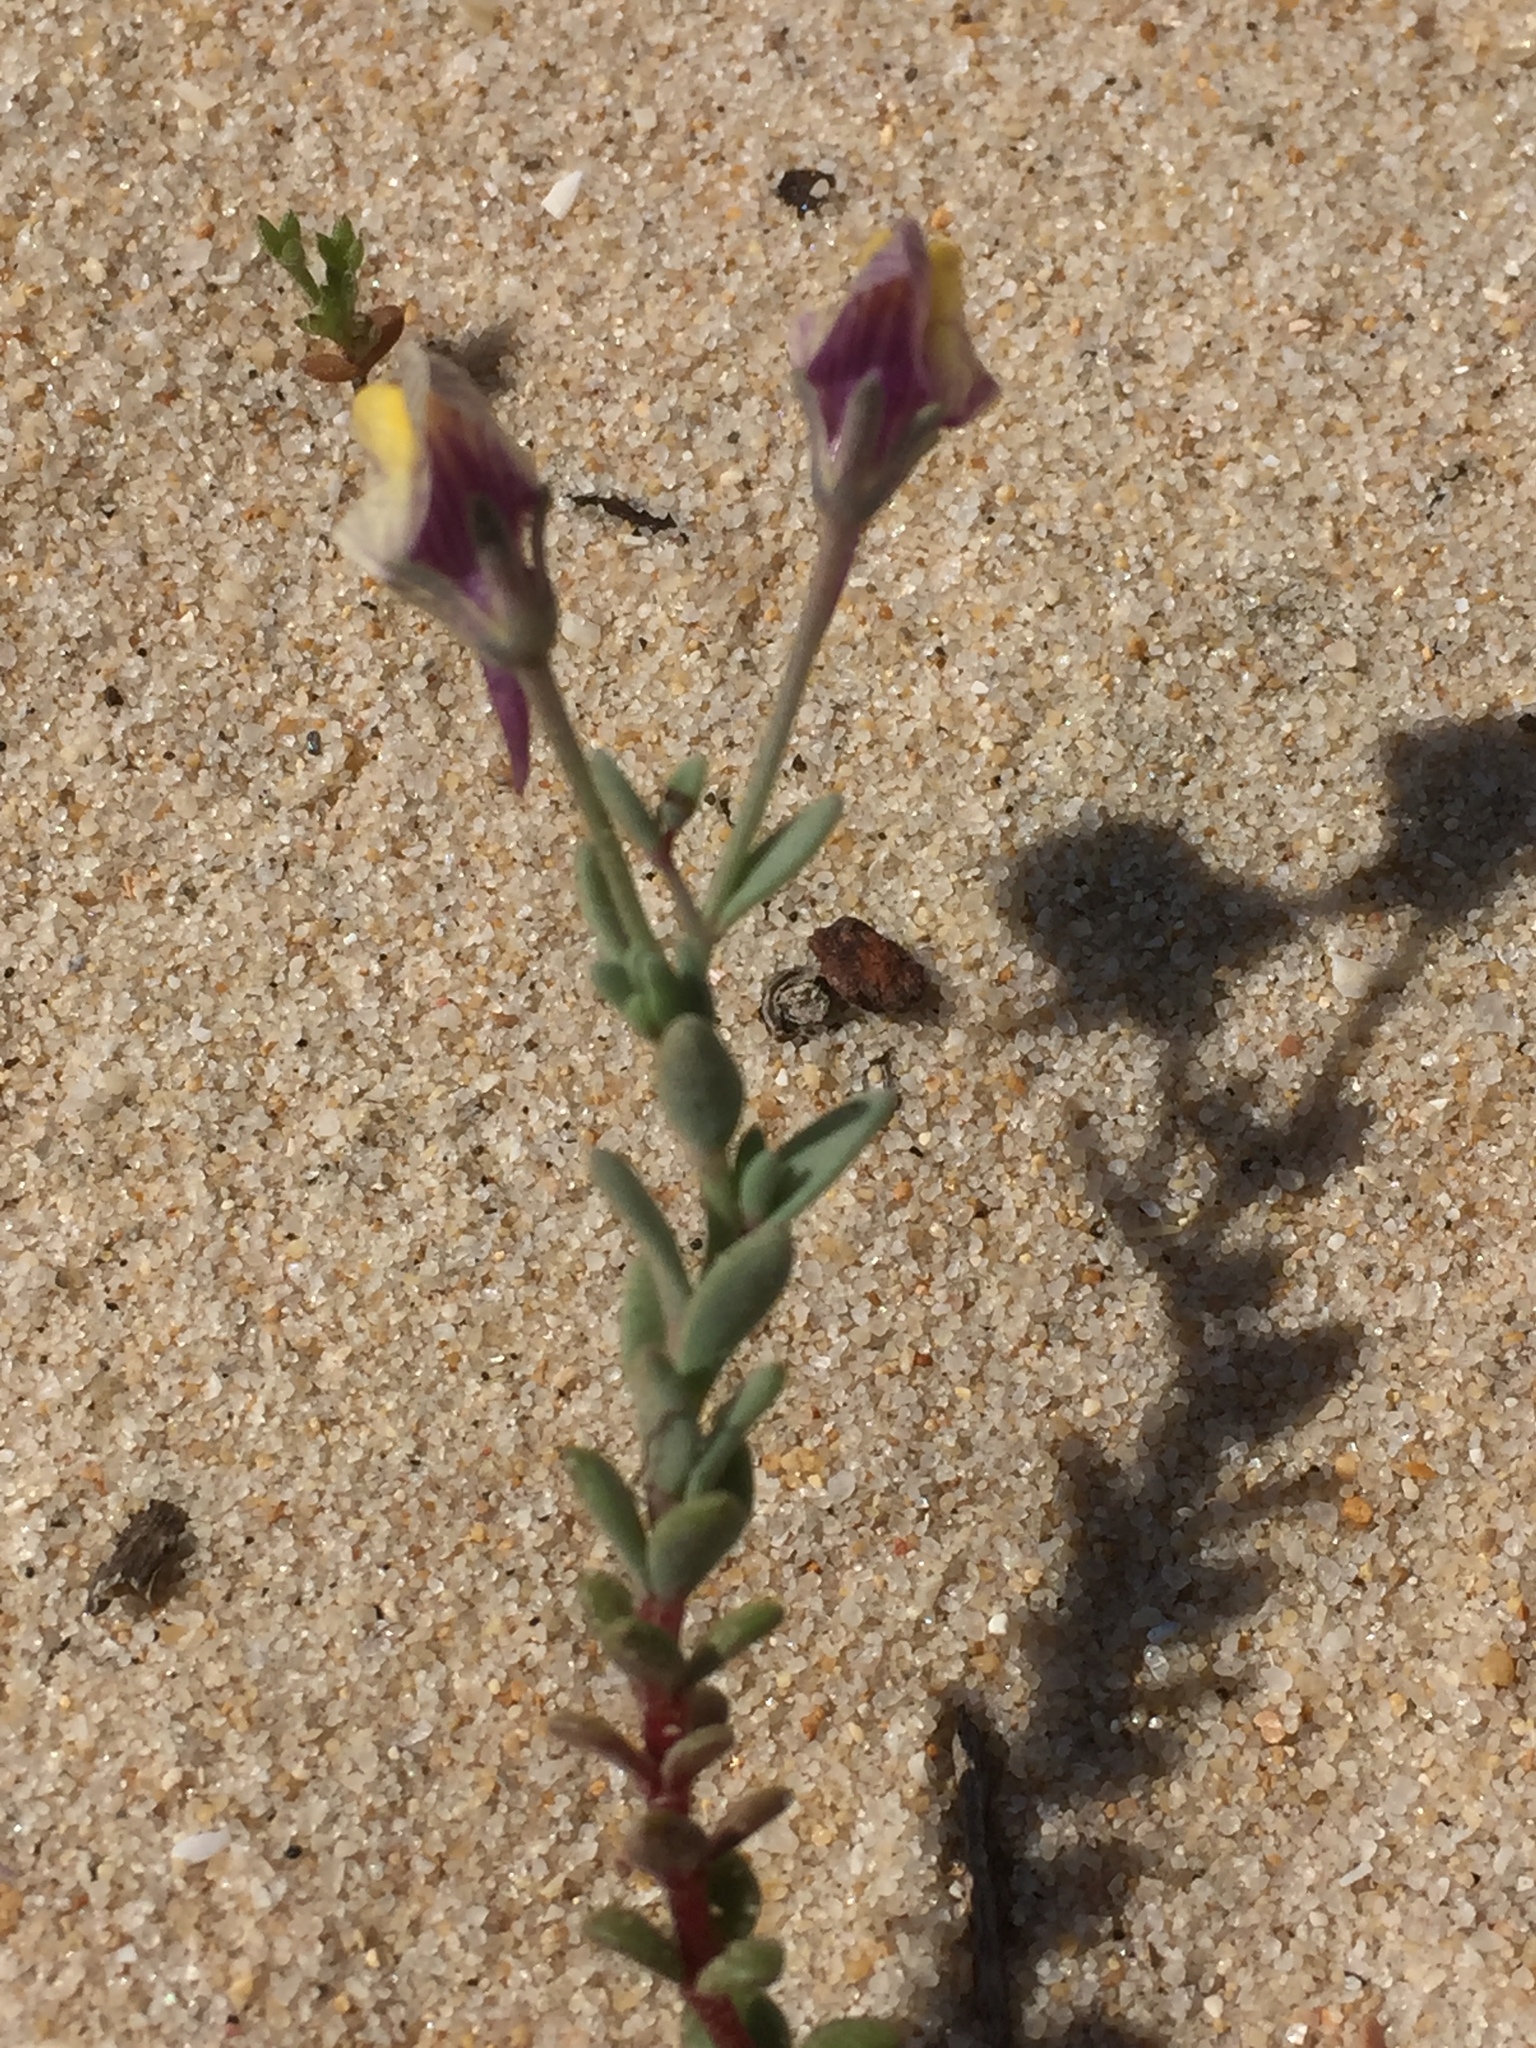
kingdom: Plantae
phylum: Tracheophyta
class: Magnoliopsida
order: Lamiales
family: Plantaginaceae
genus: Linaria
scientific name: Linaria pedunculata
